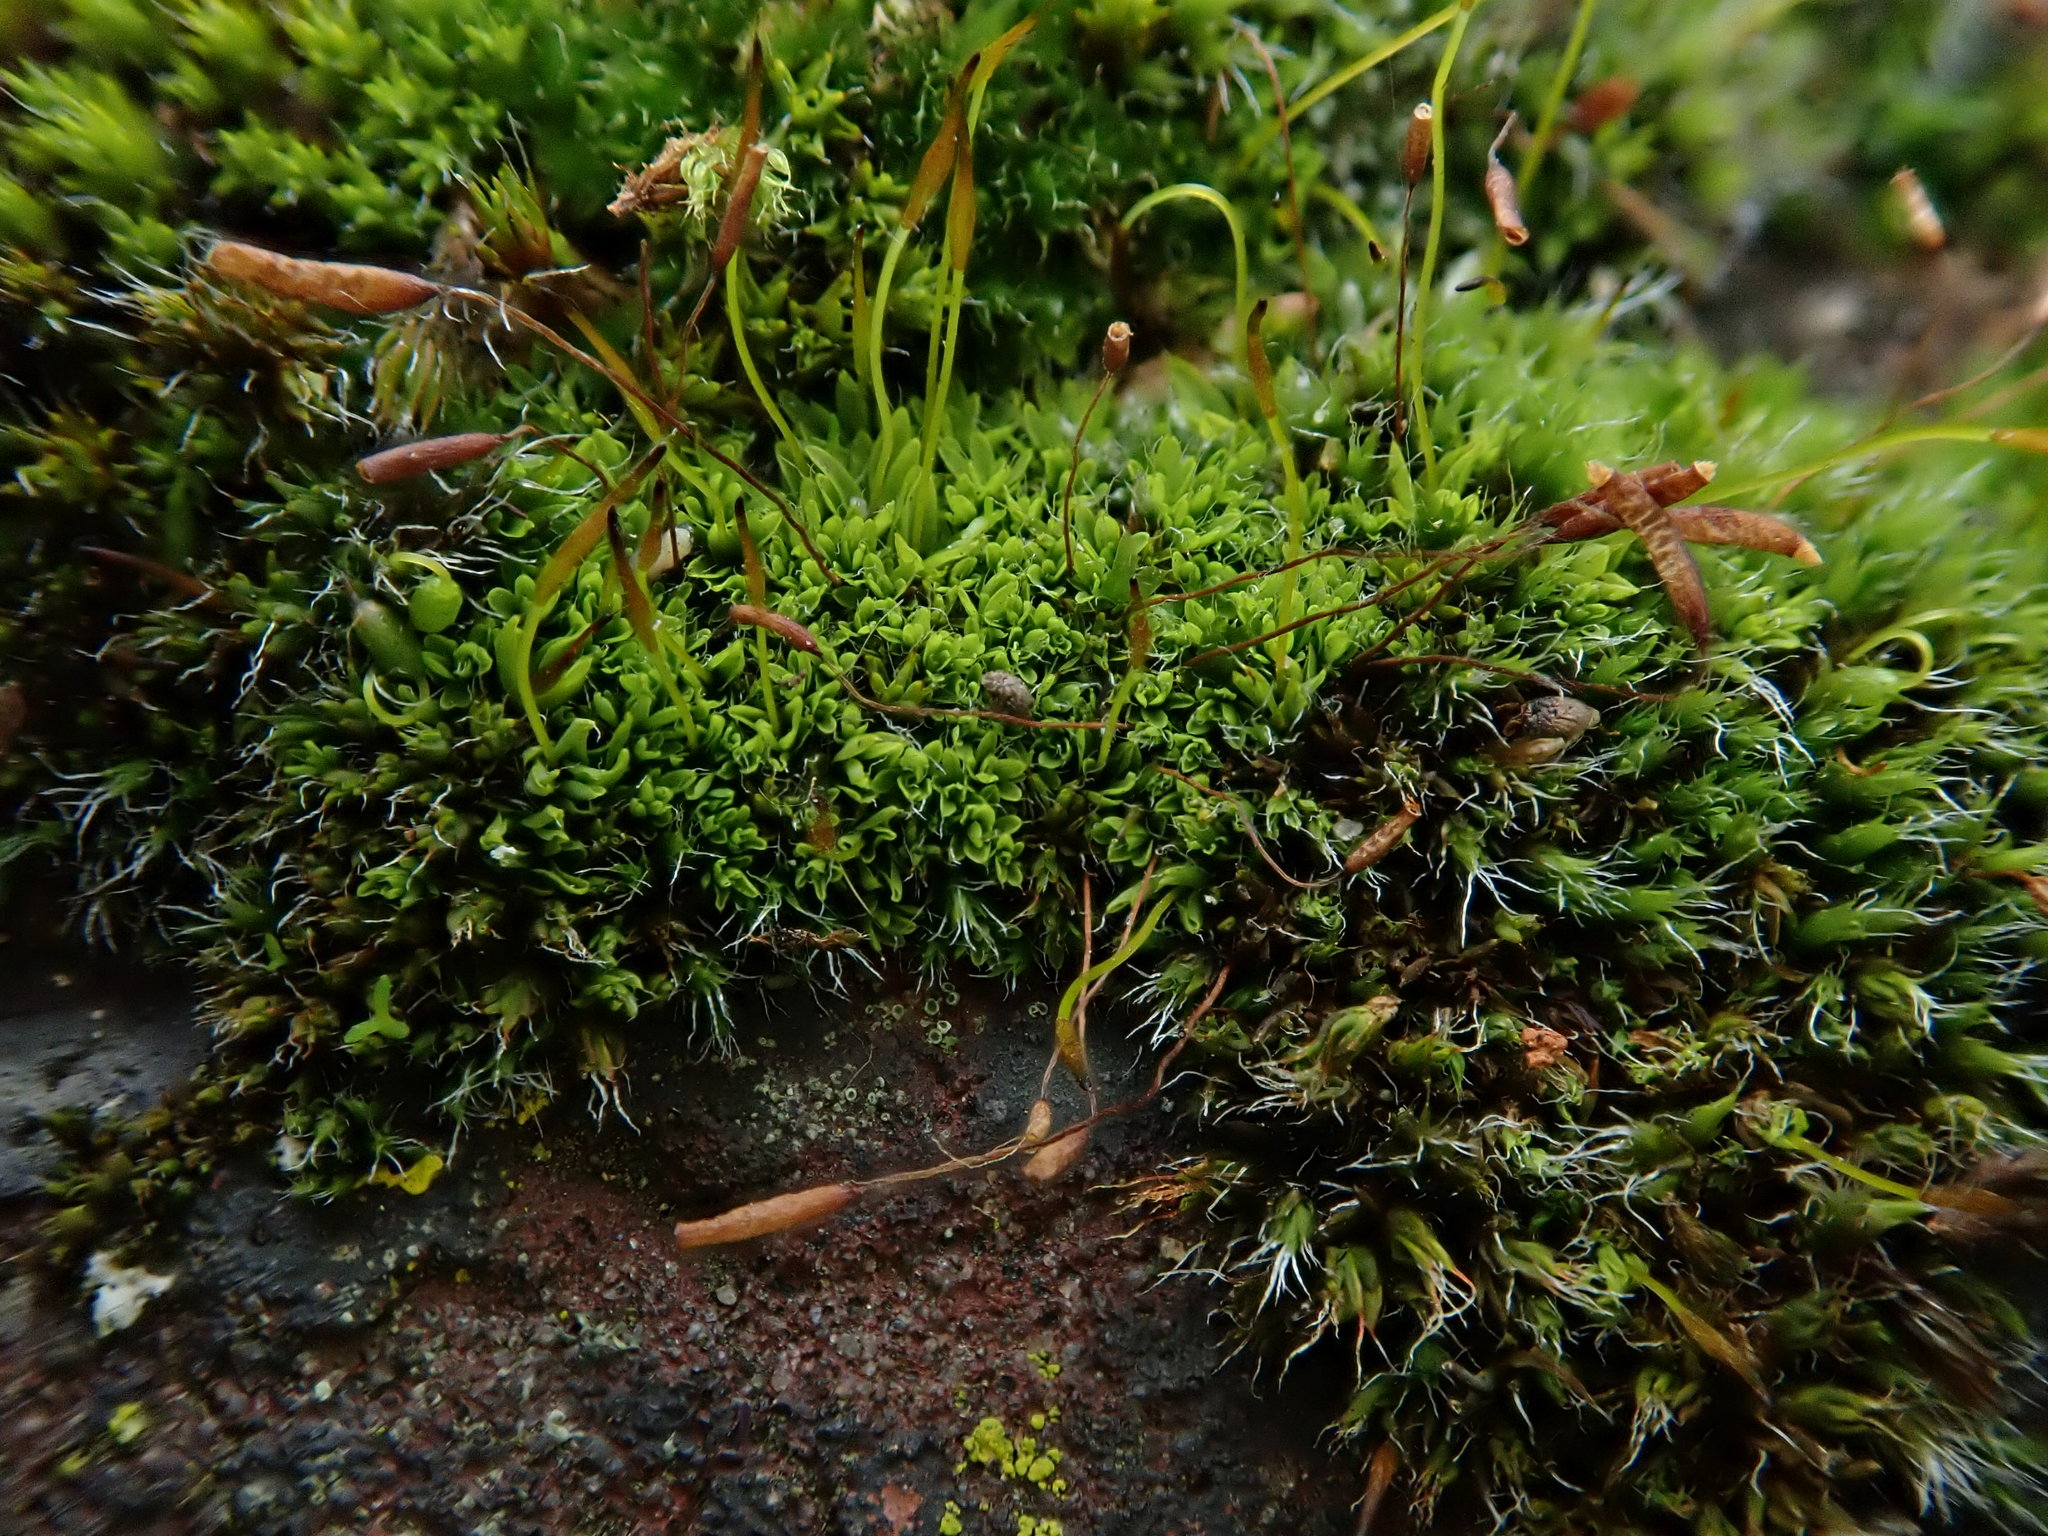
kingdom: Plantae
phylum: Bryophyta
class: Bryopsida
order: Pottiales
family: Pottiaceae
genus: Tortula
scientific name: Tortula muralis
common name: Wall screw-moss
